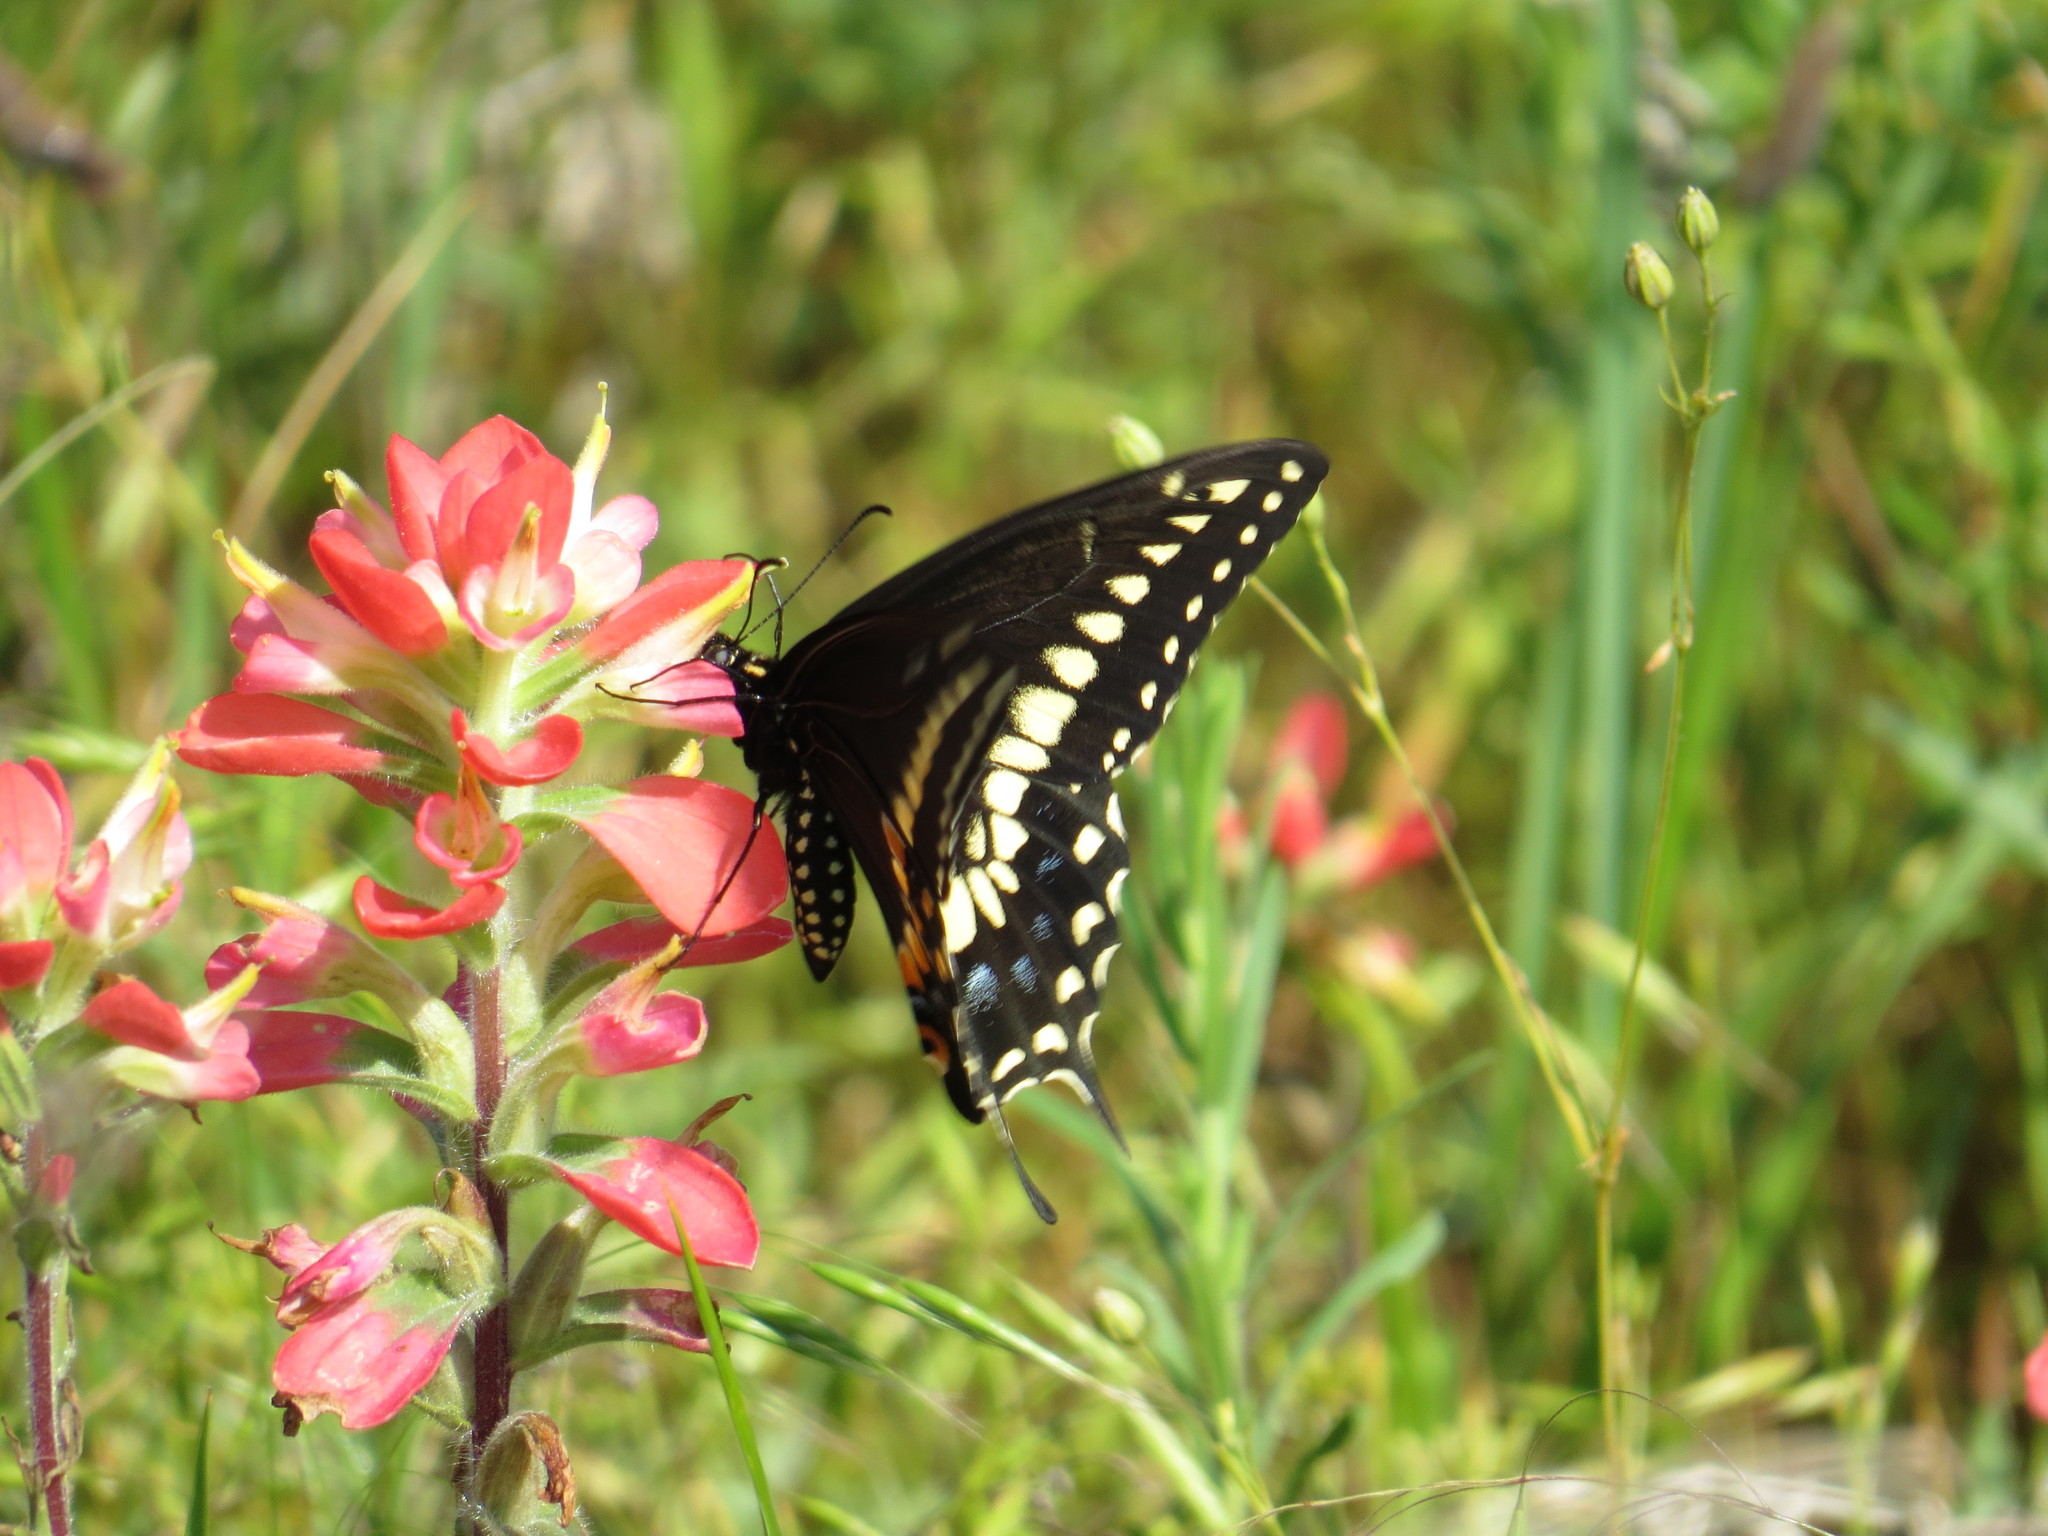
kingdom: Animalia
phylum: Arthropoda
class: Insecta
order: Lepidoptera
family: Papilionidae
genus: Papilio
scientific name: Papilio polyxenes
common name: Black swallowtail
